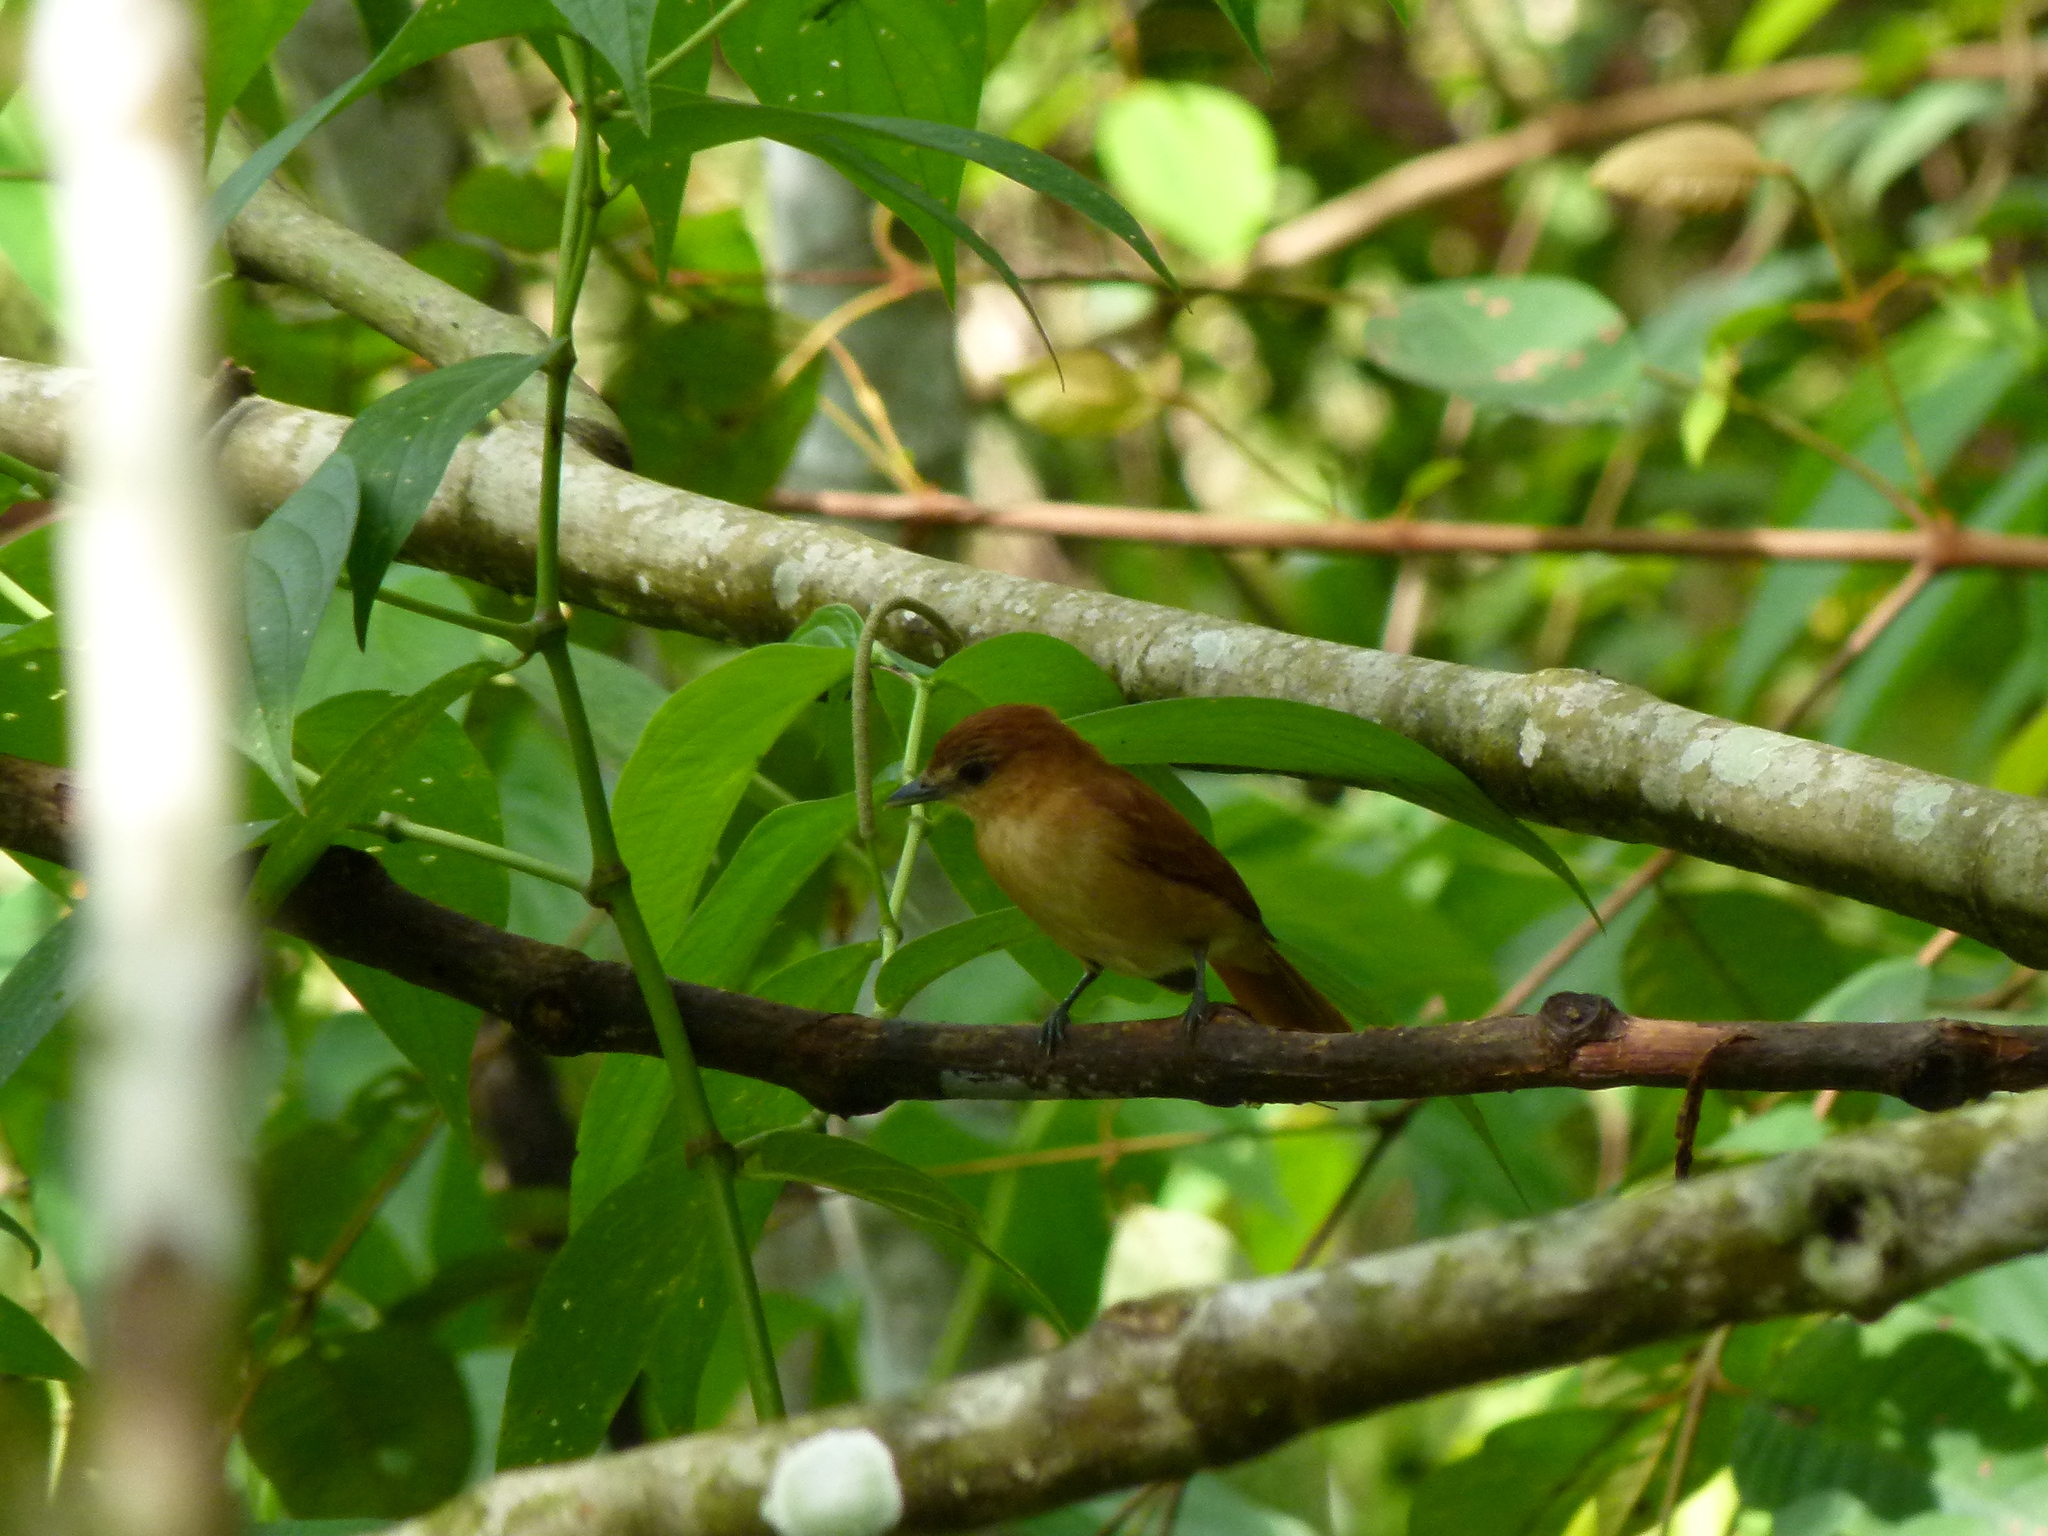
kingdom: Animalia
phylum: Chordata
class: Aves
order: Passeriformes
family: Cotingidae
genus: Pachyramphus
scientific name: Pachyramphus cinnamomeus
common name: Cinnamon becard
